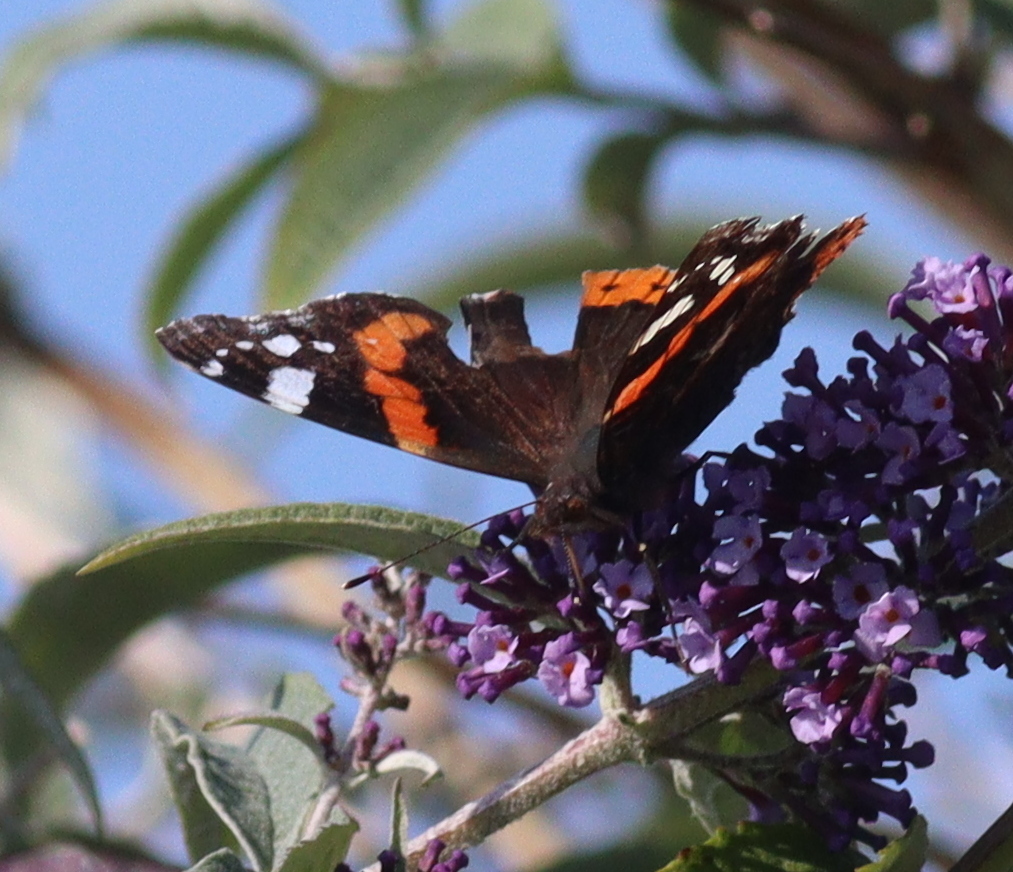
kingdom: Animalia
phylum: Arthropoda
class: Insecta
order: Lepidoptera
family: Nymphalidae
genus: Vanessa
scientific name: Vanessa atalanta
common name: Red admiral
